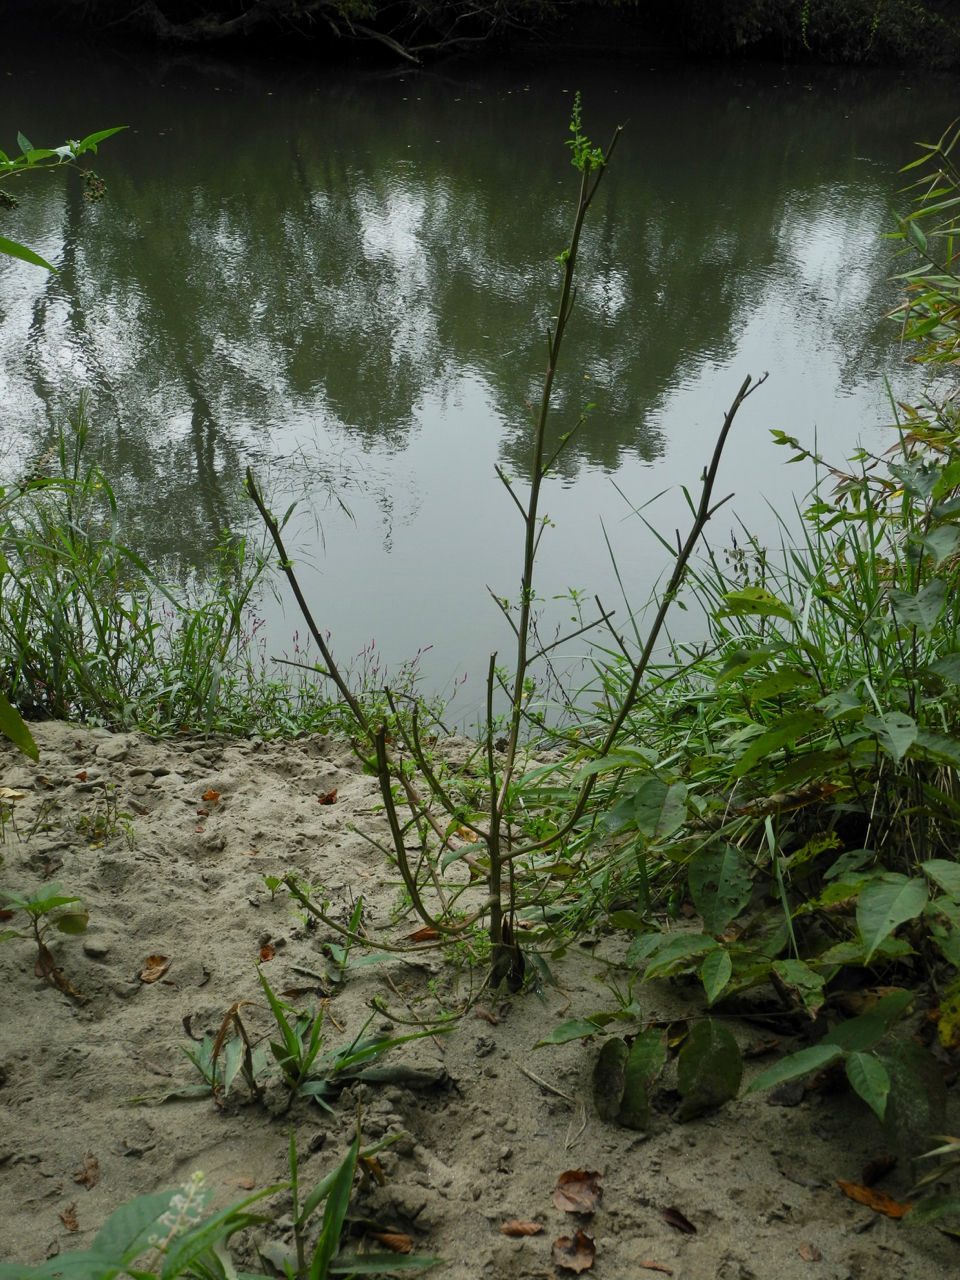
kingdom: Plantae
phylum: Tracheophyta
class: Magnoliopsida
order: Caryophyllales
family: Amaranthaceae
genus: Chenopodium
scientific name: Chenopodium album
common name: Fat-hen
